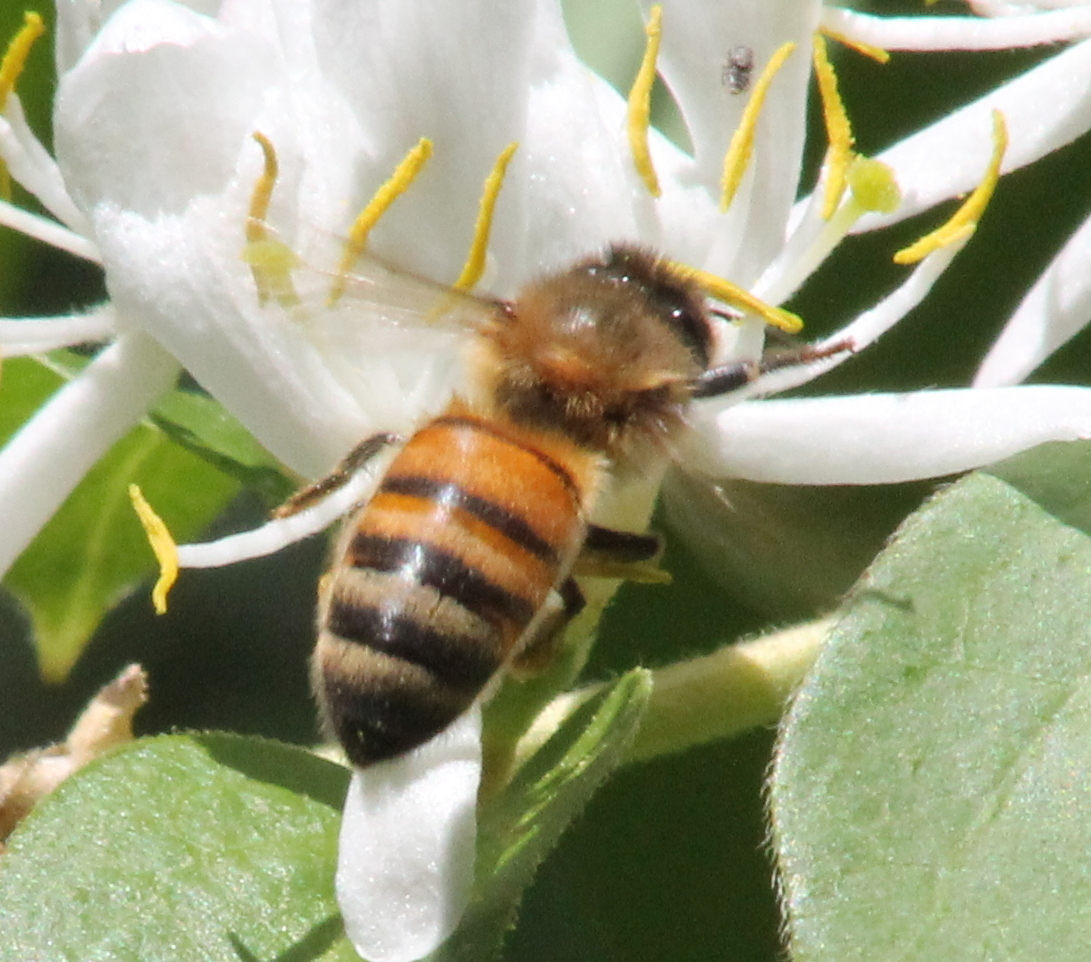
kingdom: Animalia
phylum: Arthropoda
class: Insecta
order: Hymenoptera
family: Apidae
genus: Apis
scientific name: Apis mellifera
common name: Honey bee
